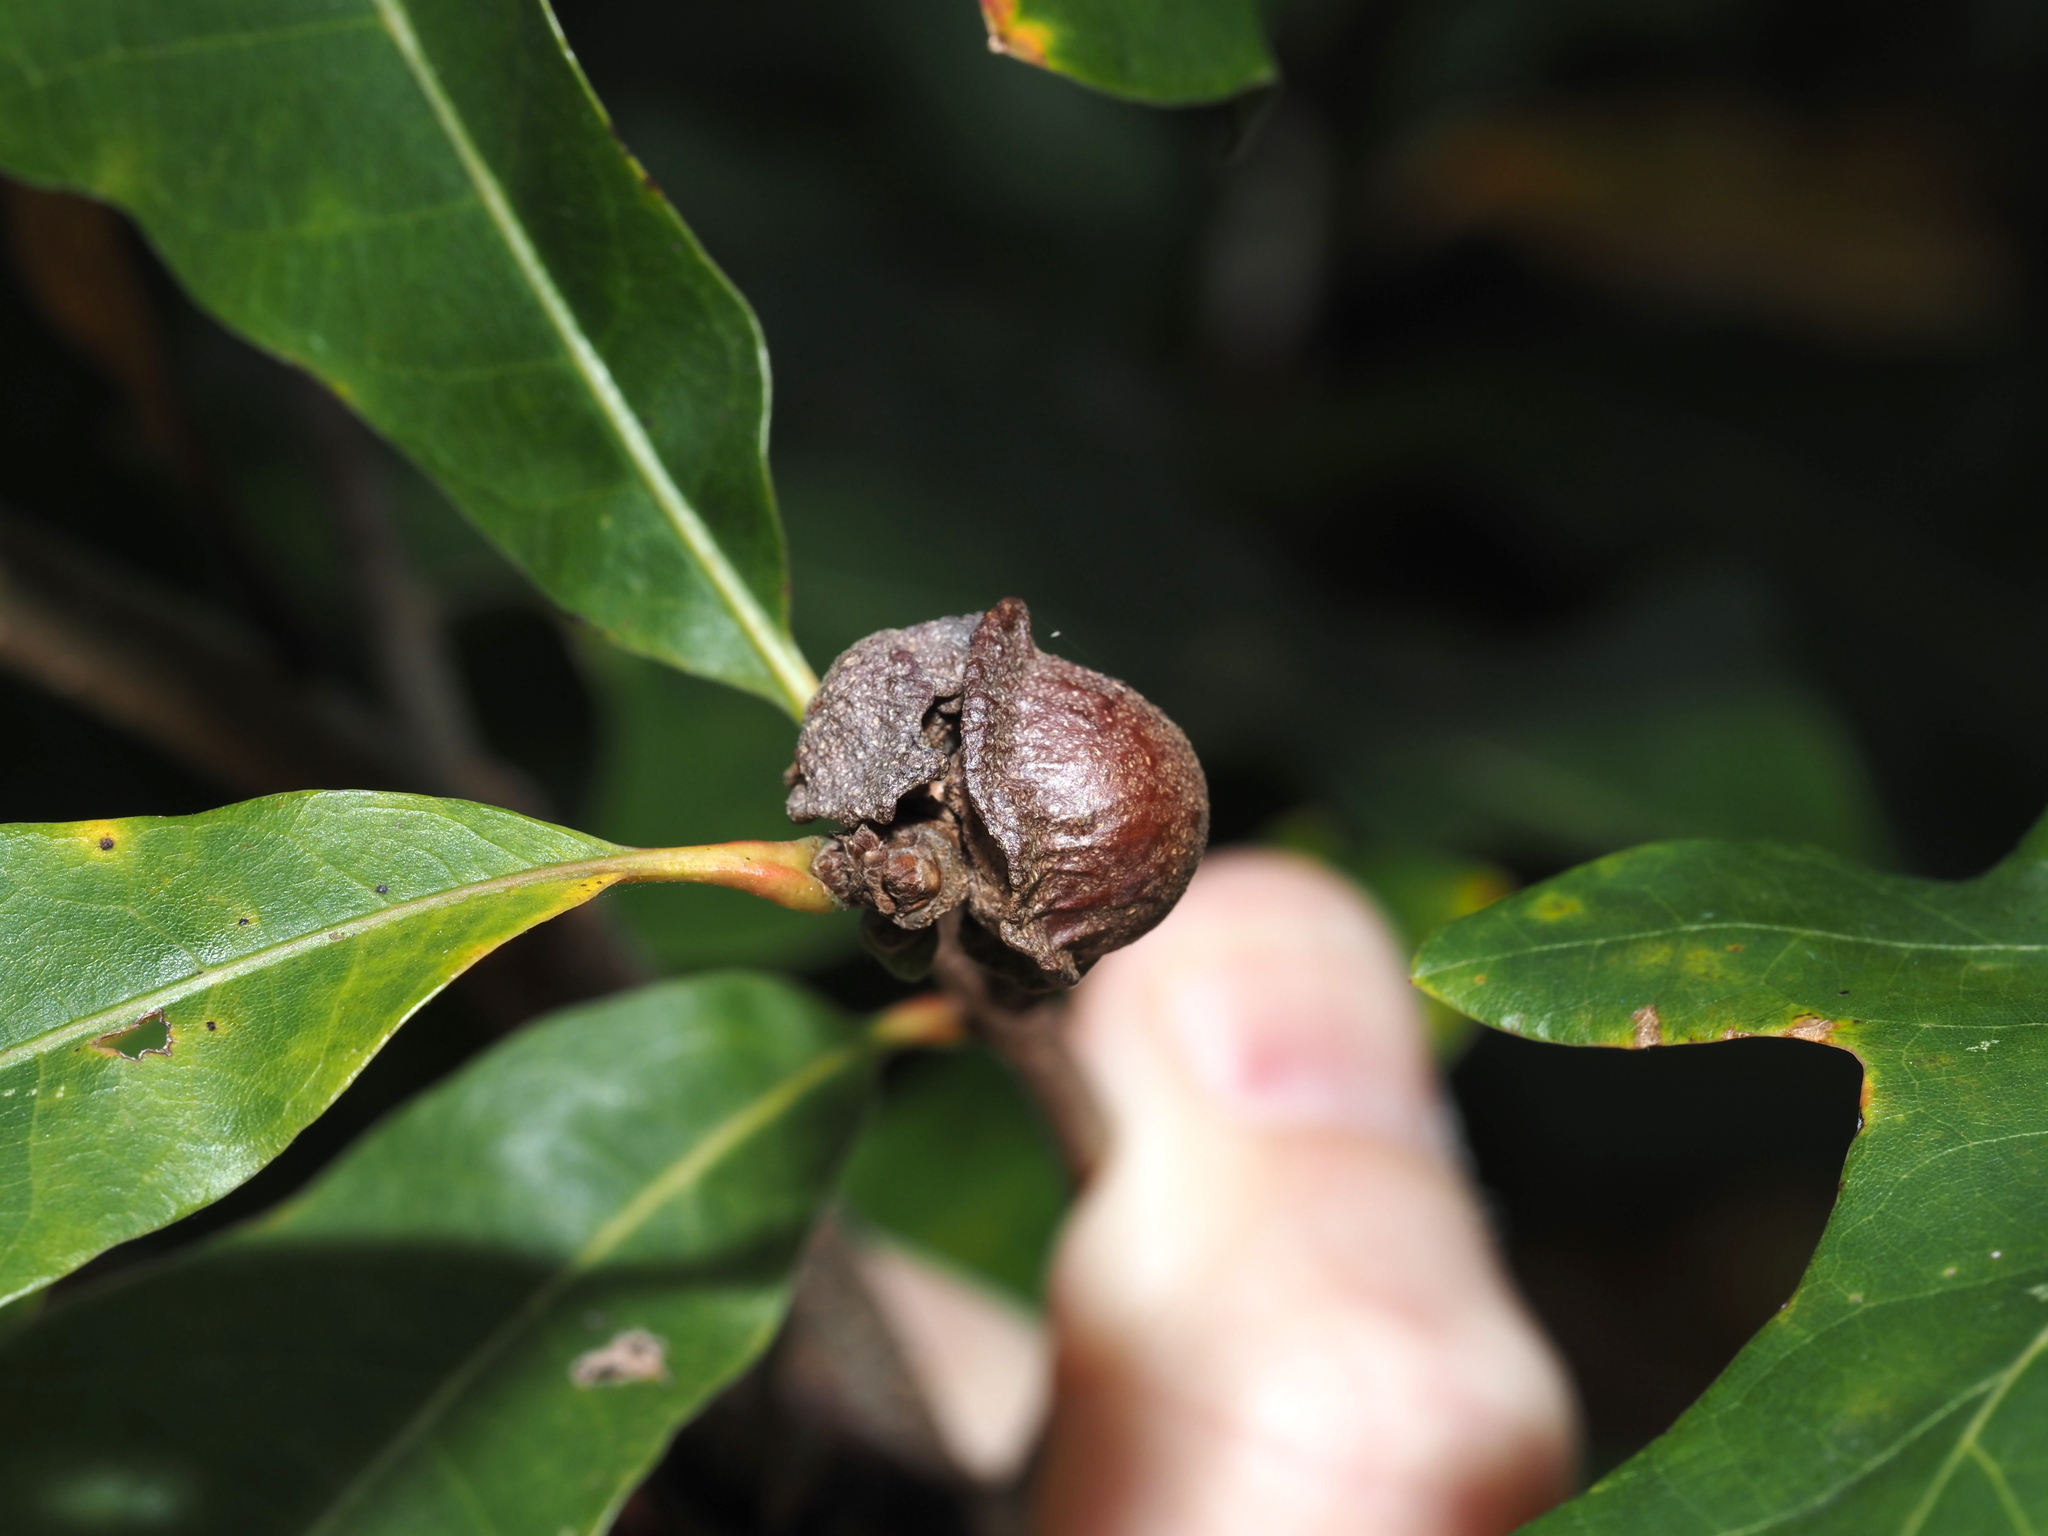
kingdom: Animalia
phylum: Arthropoda
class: Insecta
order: Hymenoptera
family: Cynipidae
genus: Andricus
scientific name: Andricus
